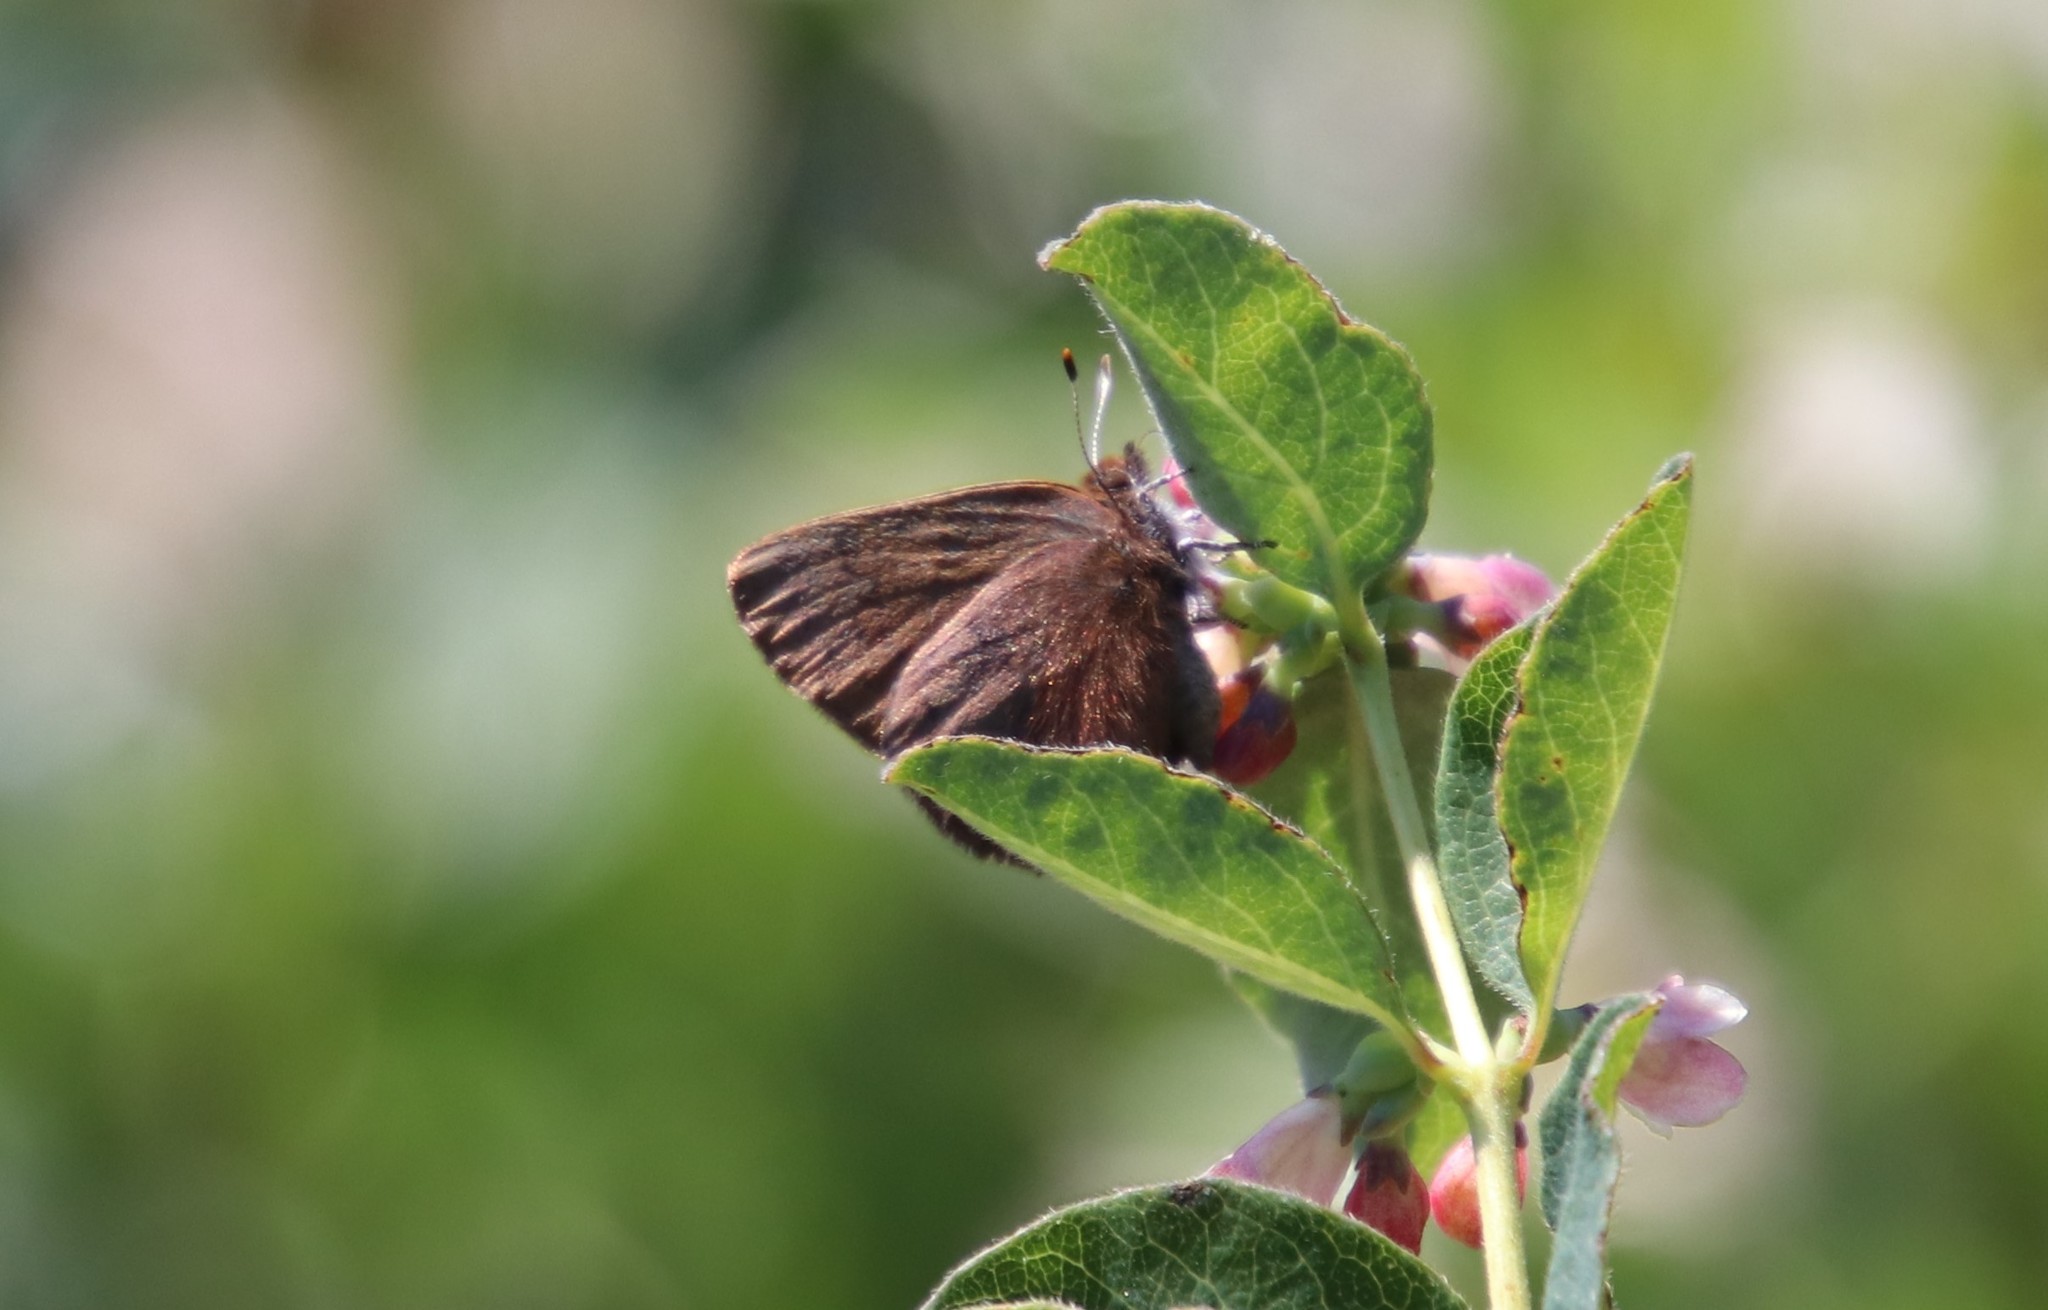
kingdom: Animalia
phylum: Arthropoda
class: Insecta
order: Lepidoptera
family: Lycaenidae
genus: Incisalia
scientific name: Incisalia irioides
